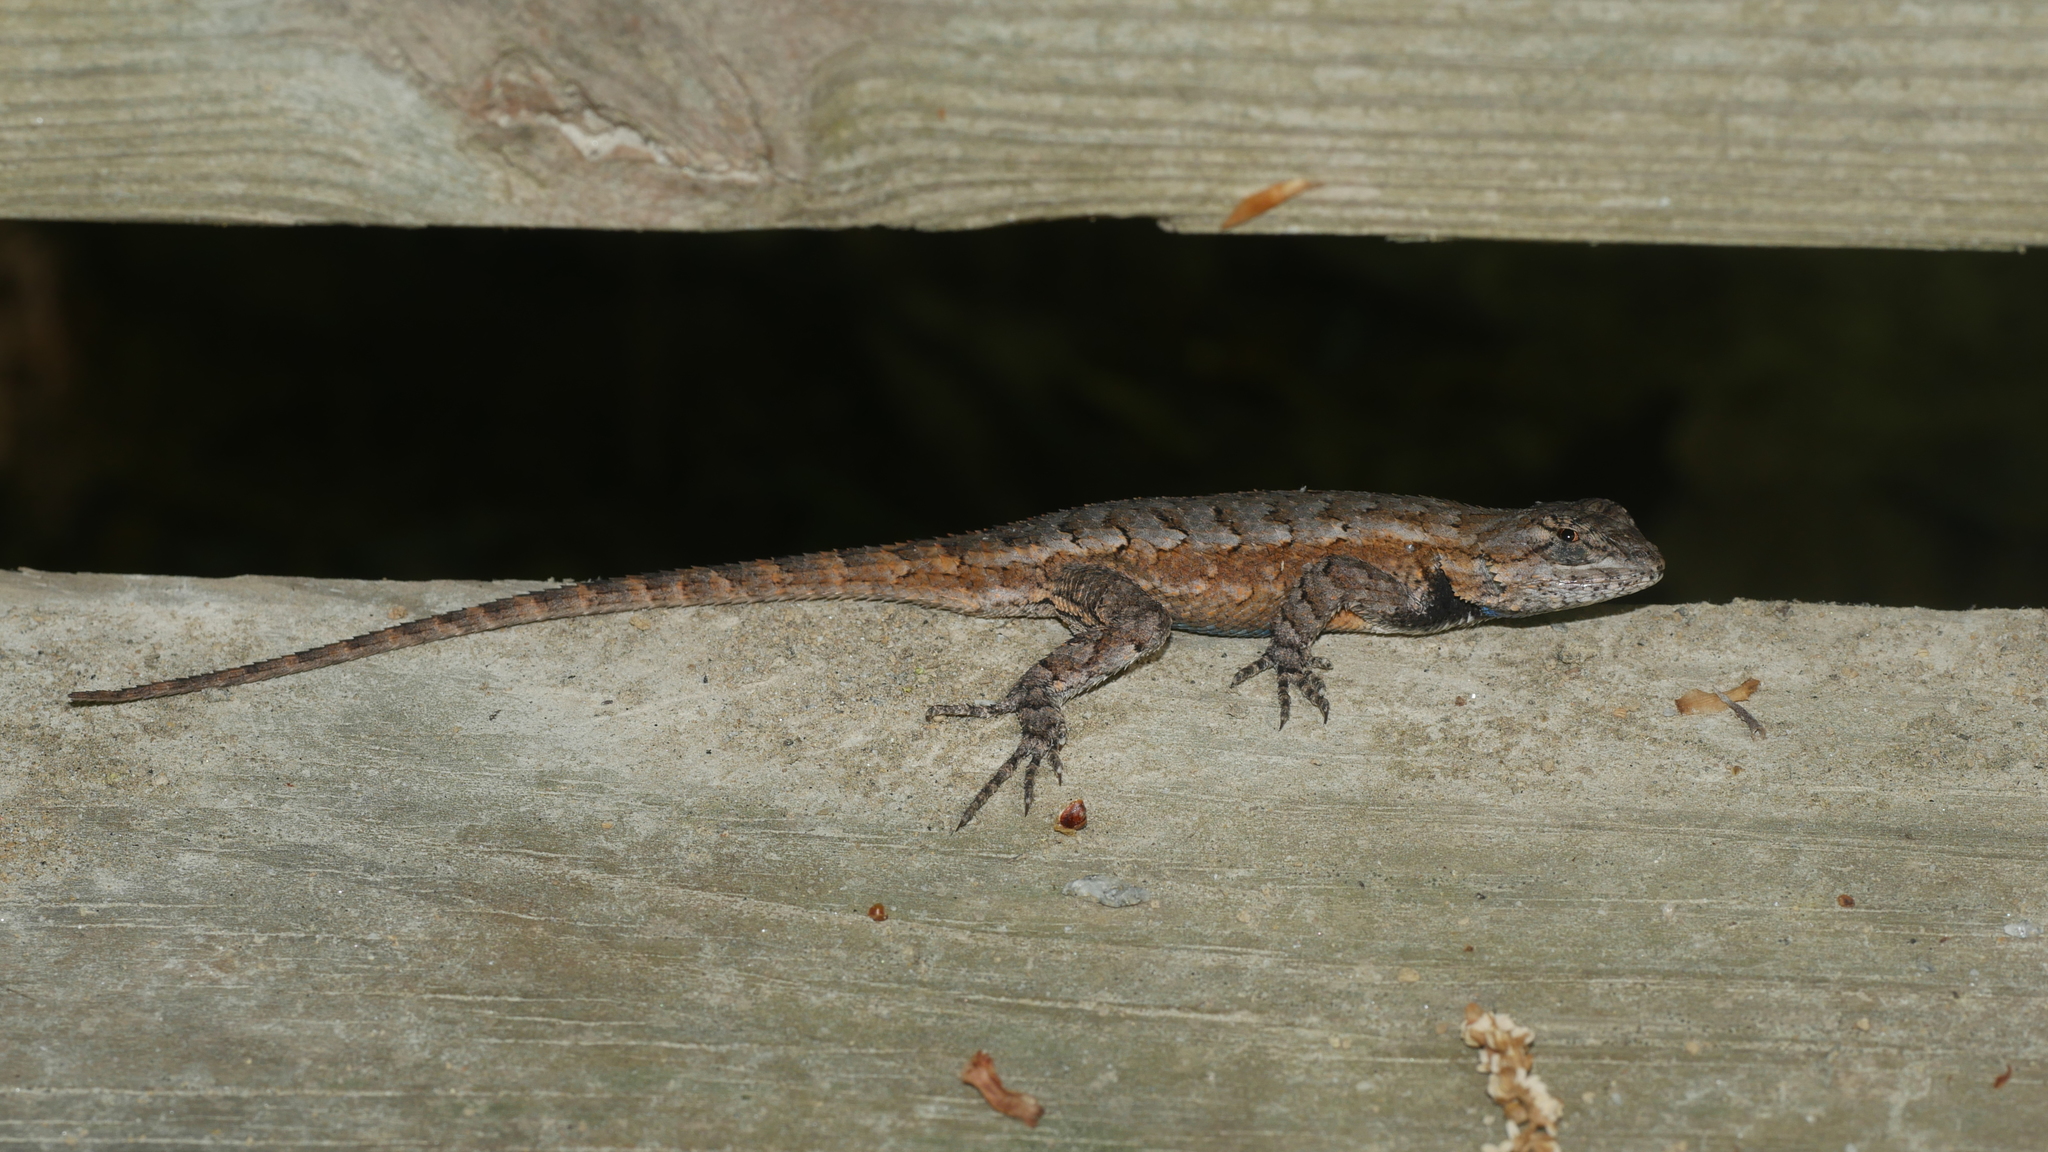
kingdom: Animalia
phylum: Chordata
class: Squamata
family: Phrynosomatidae
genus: Sceloporus
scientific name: Sceloporus undulatus
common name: Eastern fence lizard
